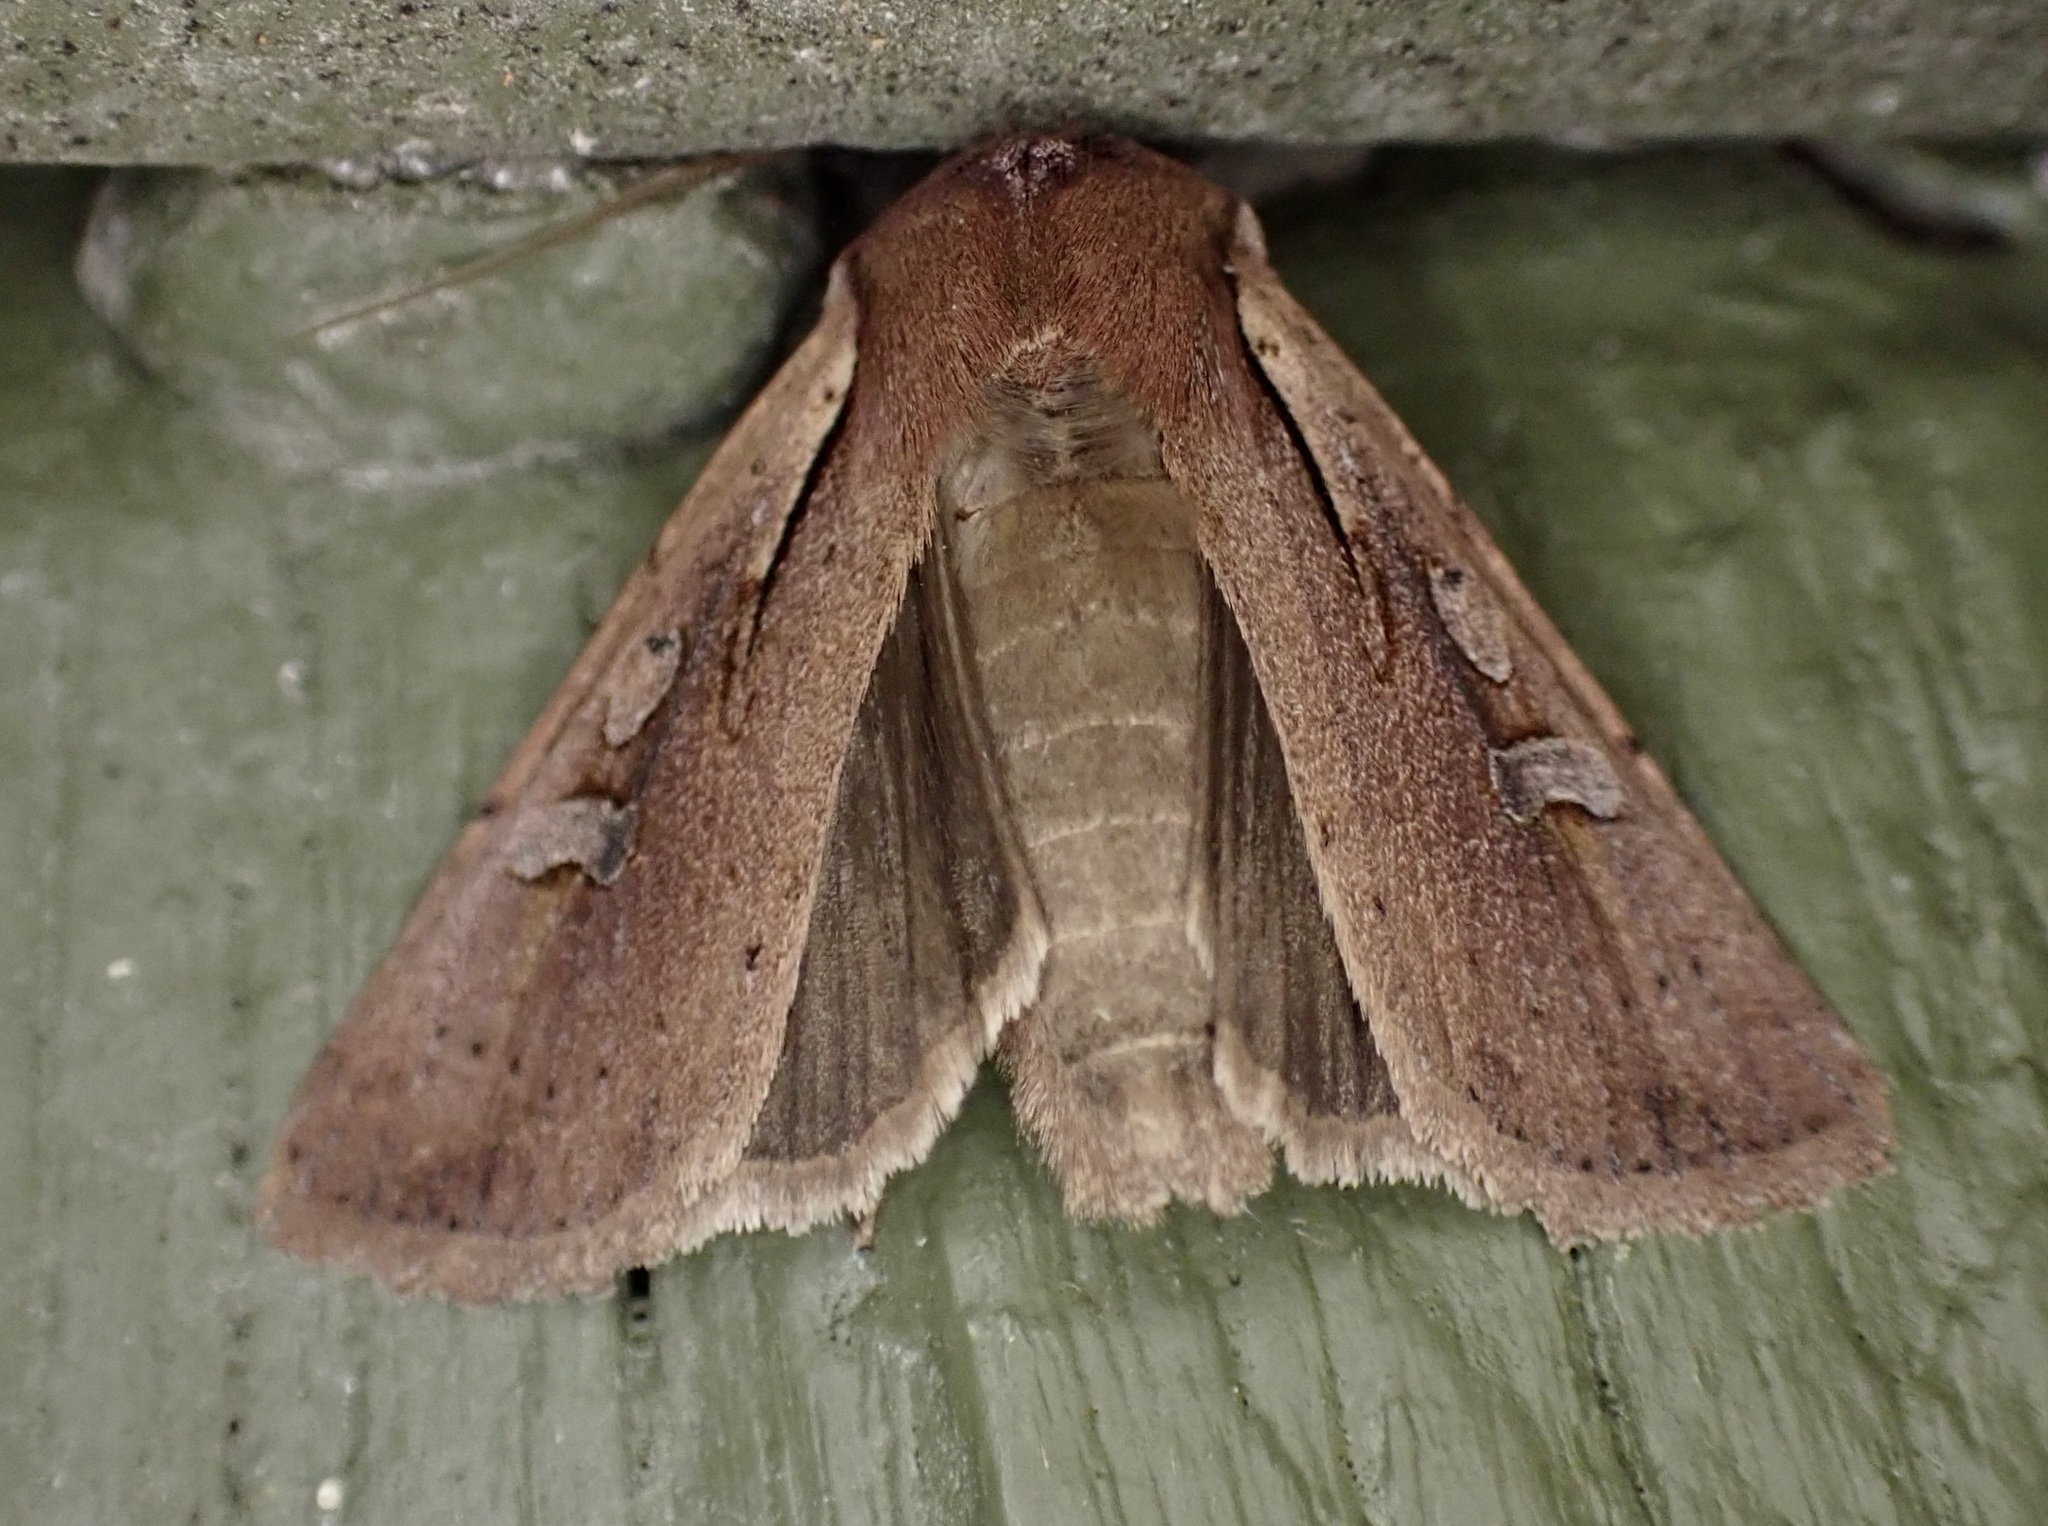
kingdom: Animalia
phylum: Arthropoda
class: Insecta
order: Lepidoptera
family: Noctuidae
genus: Ichneutica
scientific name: Ichneutica atristriga
